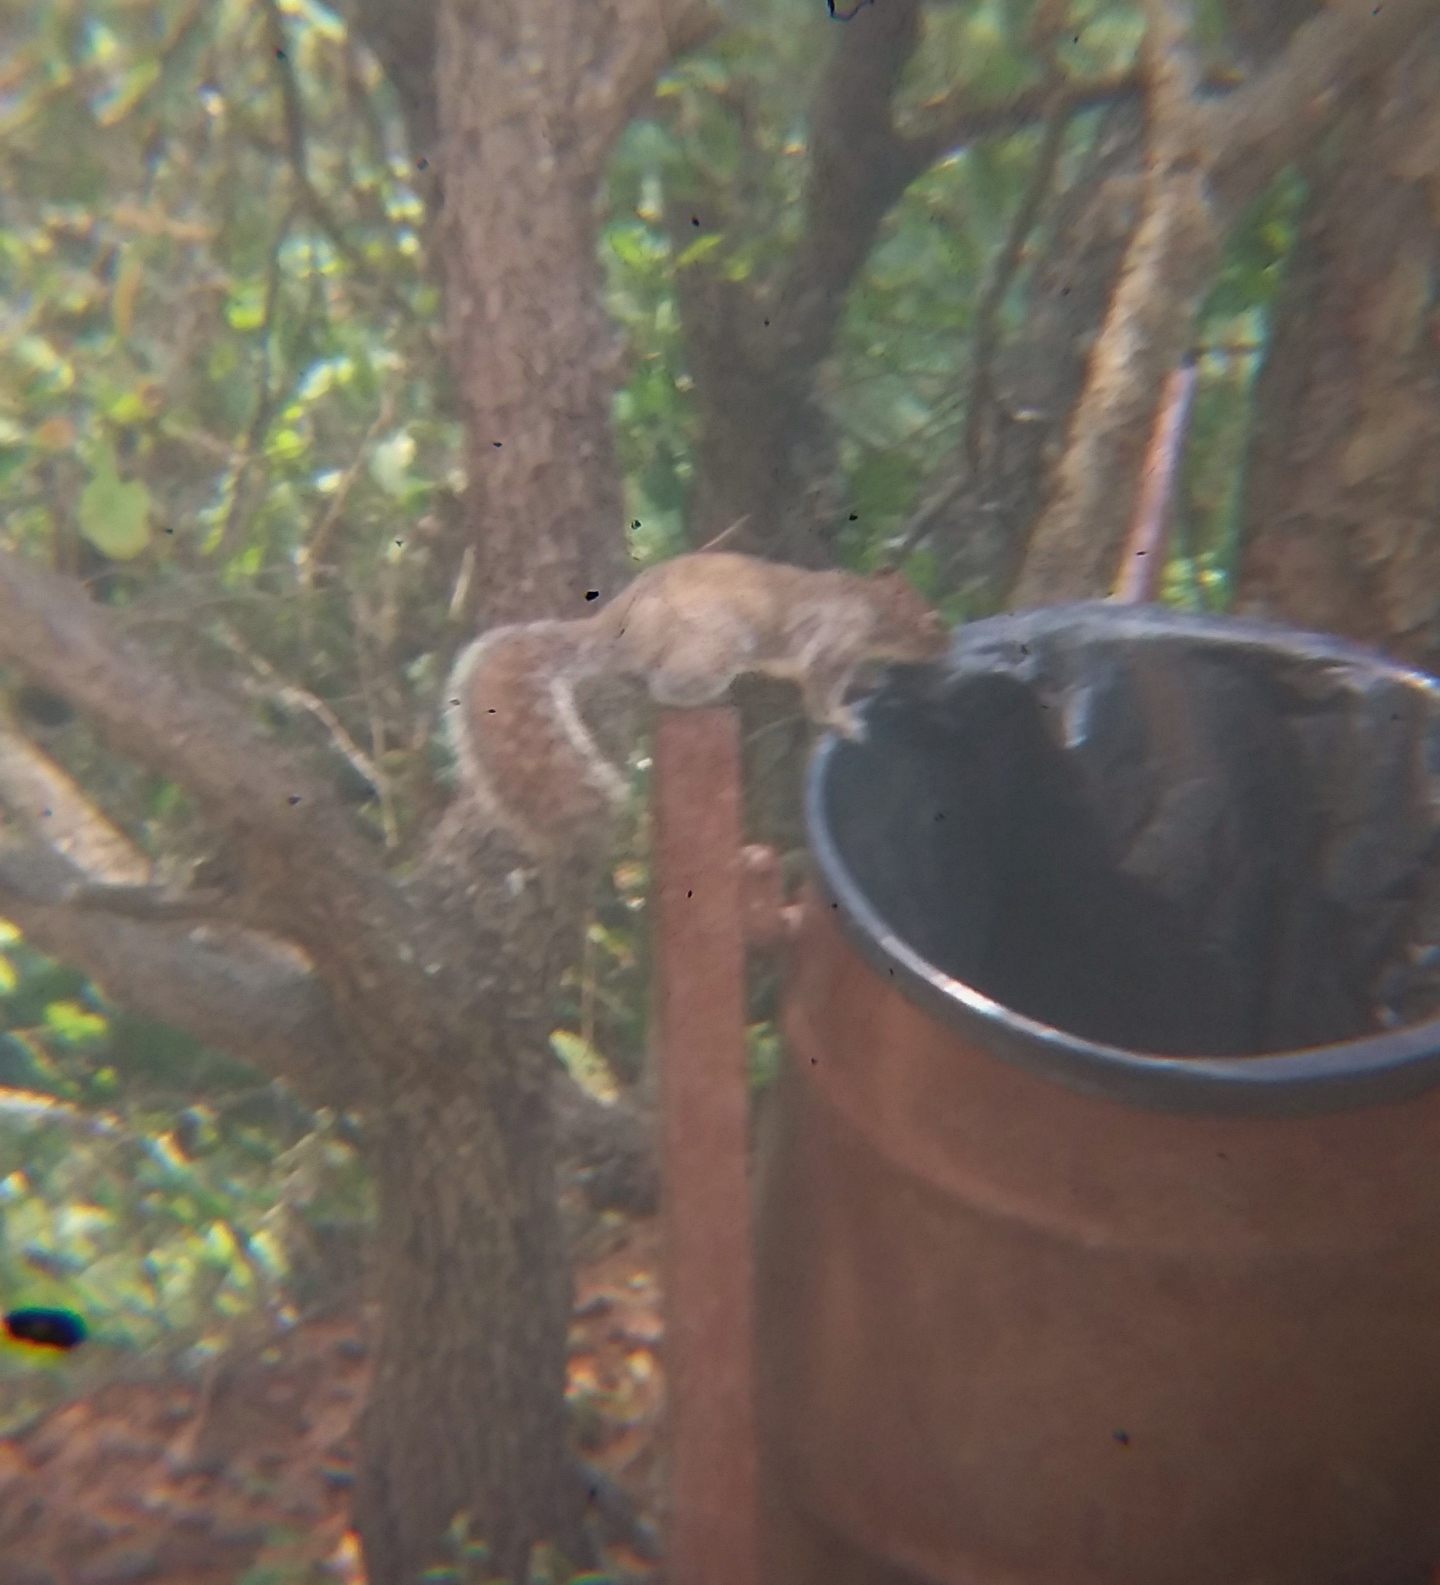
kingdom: Animalia
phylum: Chordata
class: Mammalia
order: Rodentia
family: Sciuridae
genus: Sciurus
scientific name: Sciurus alleni
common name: Allen's squirrel
